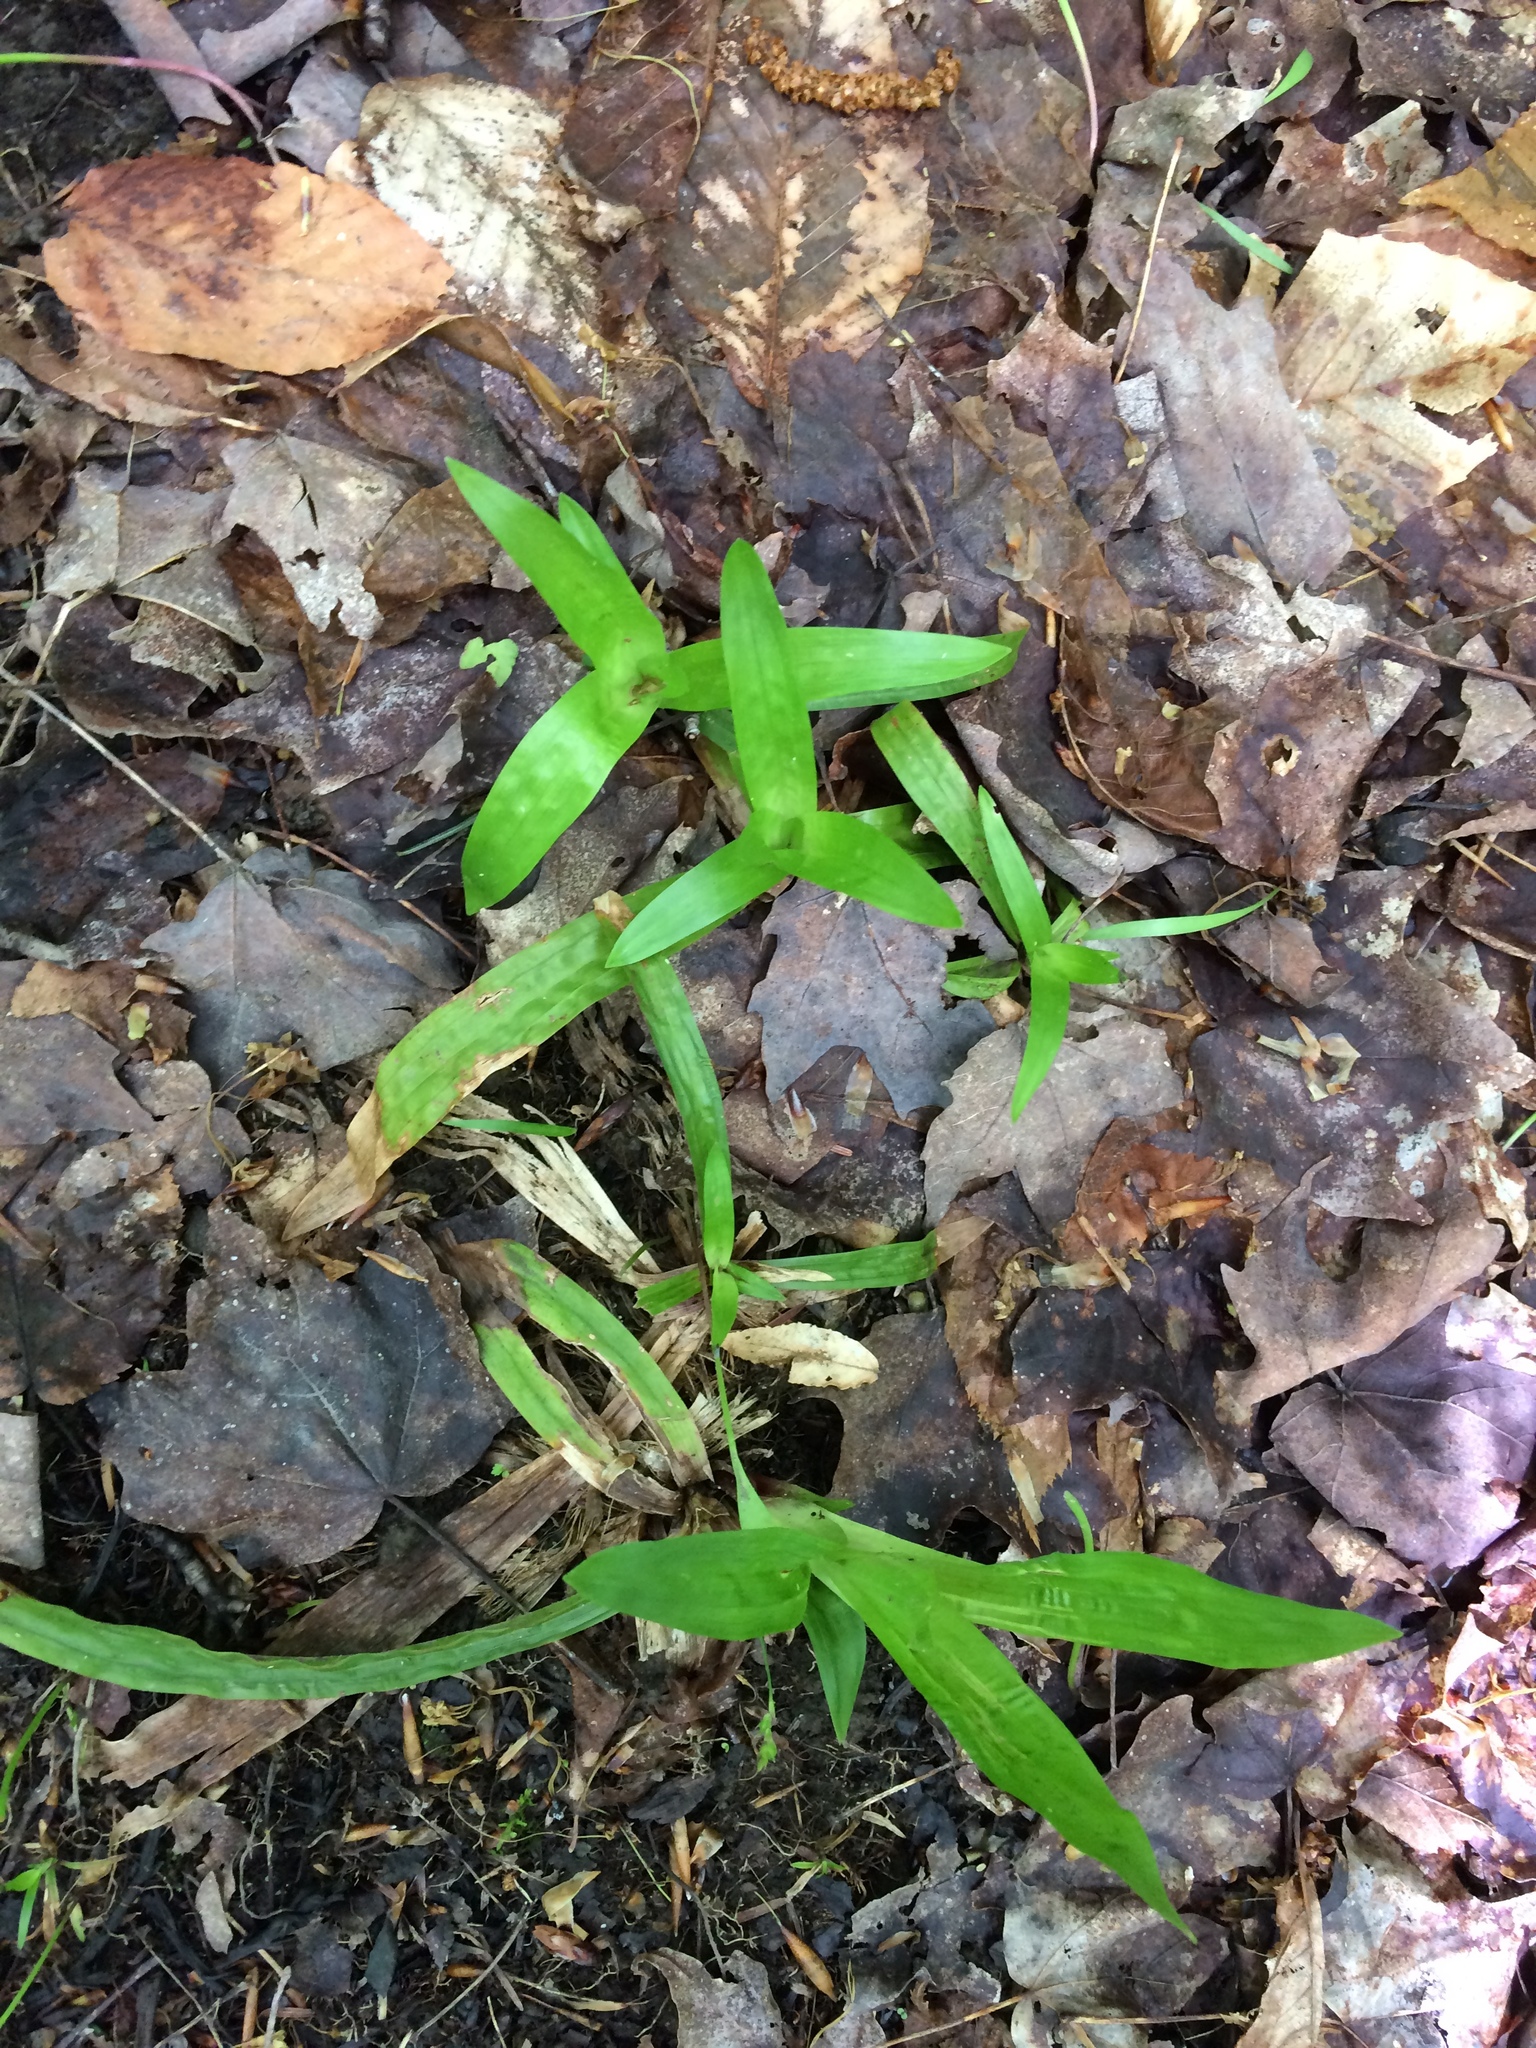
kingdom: Plantae
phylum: Tracheophyta
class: Liliopsida
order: Poales
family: Cyperaceae
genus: Carex
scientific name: Carex plantaginea
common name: Plantain-leaved sedge
